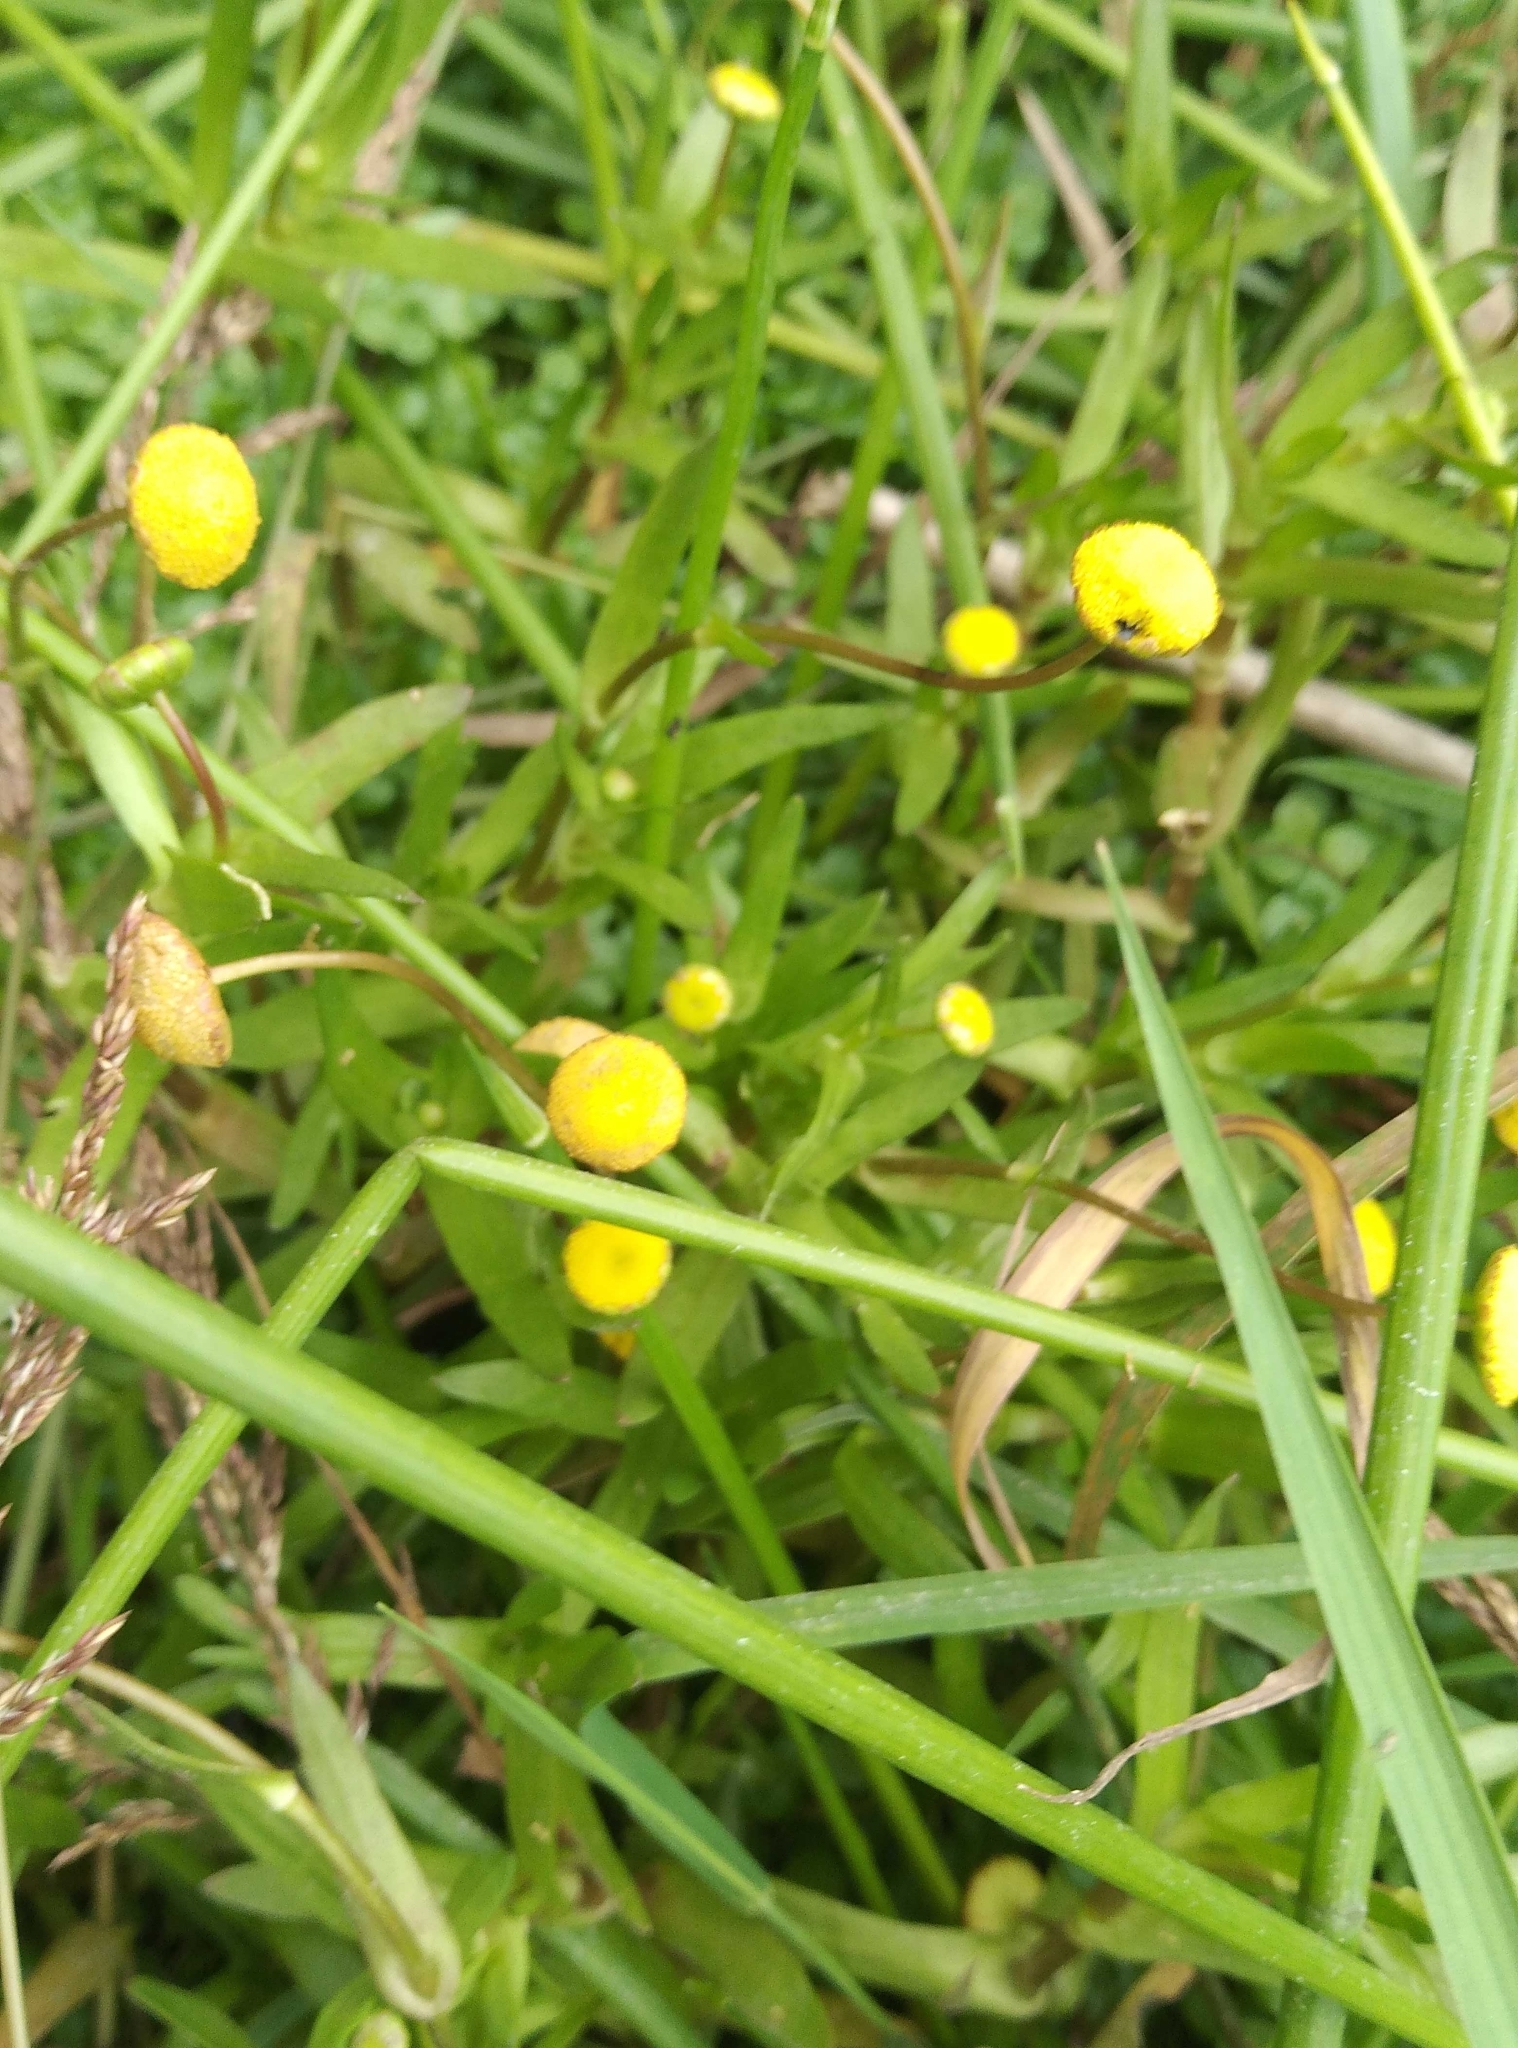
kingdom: Plantae
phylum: Tracheophyta
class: Magnoliopsida
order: Asterales
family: Asteraceae
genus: Cotula
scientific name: Cotula coronopifolia
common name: Buttonweed
